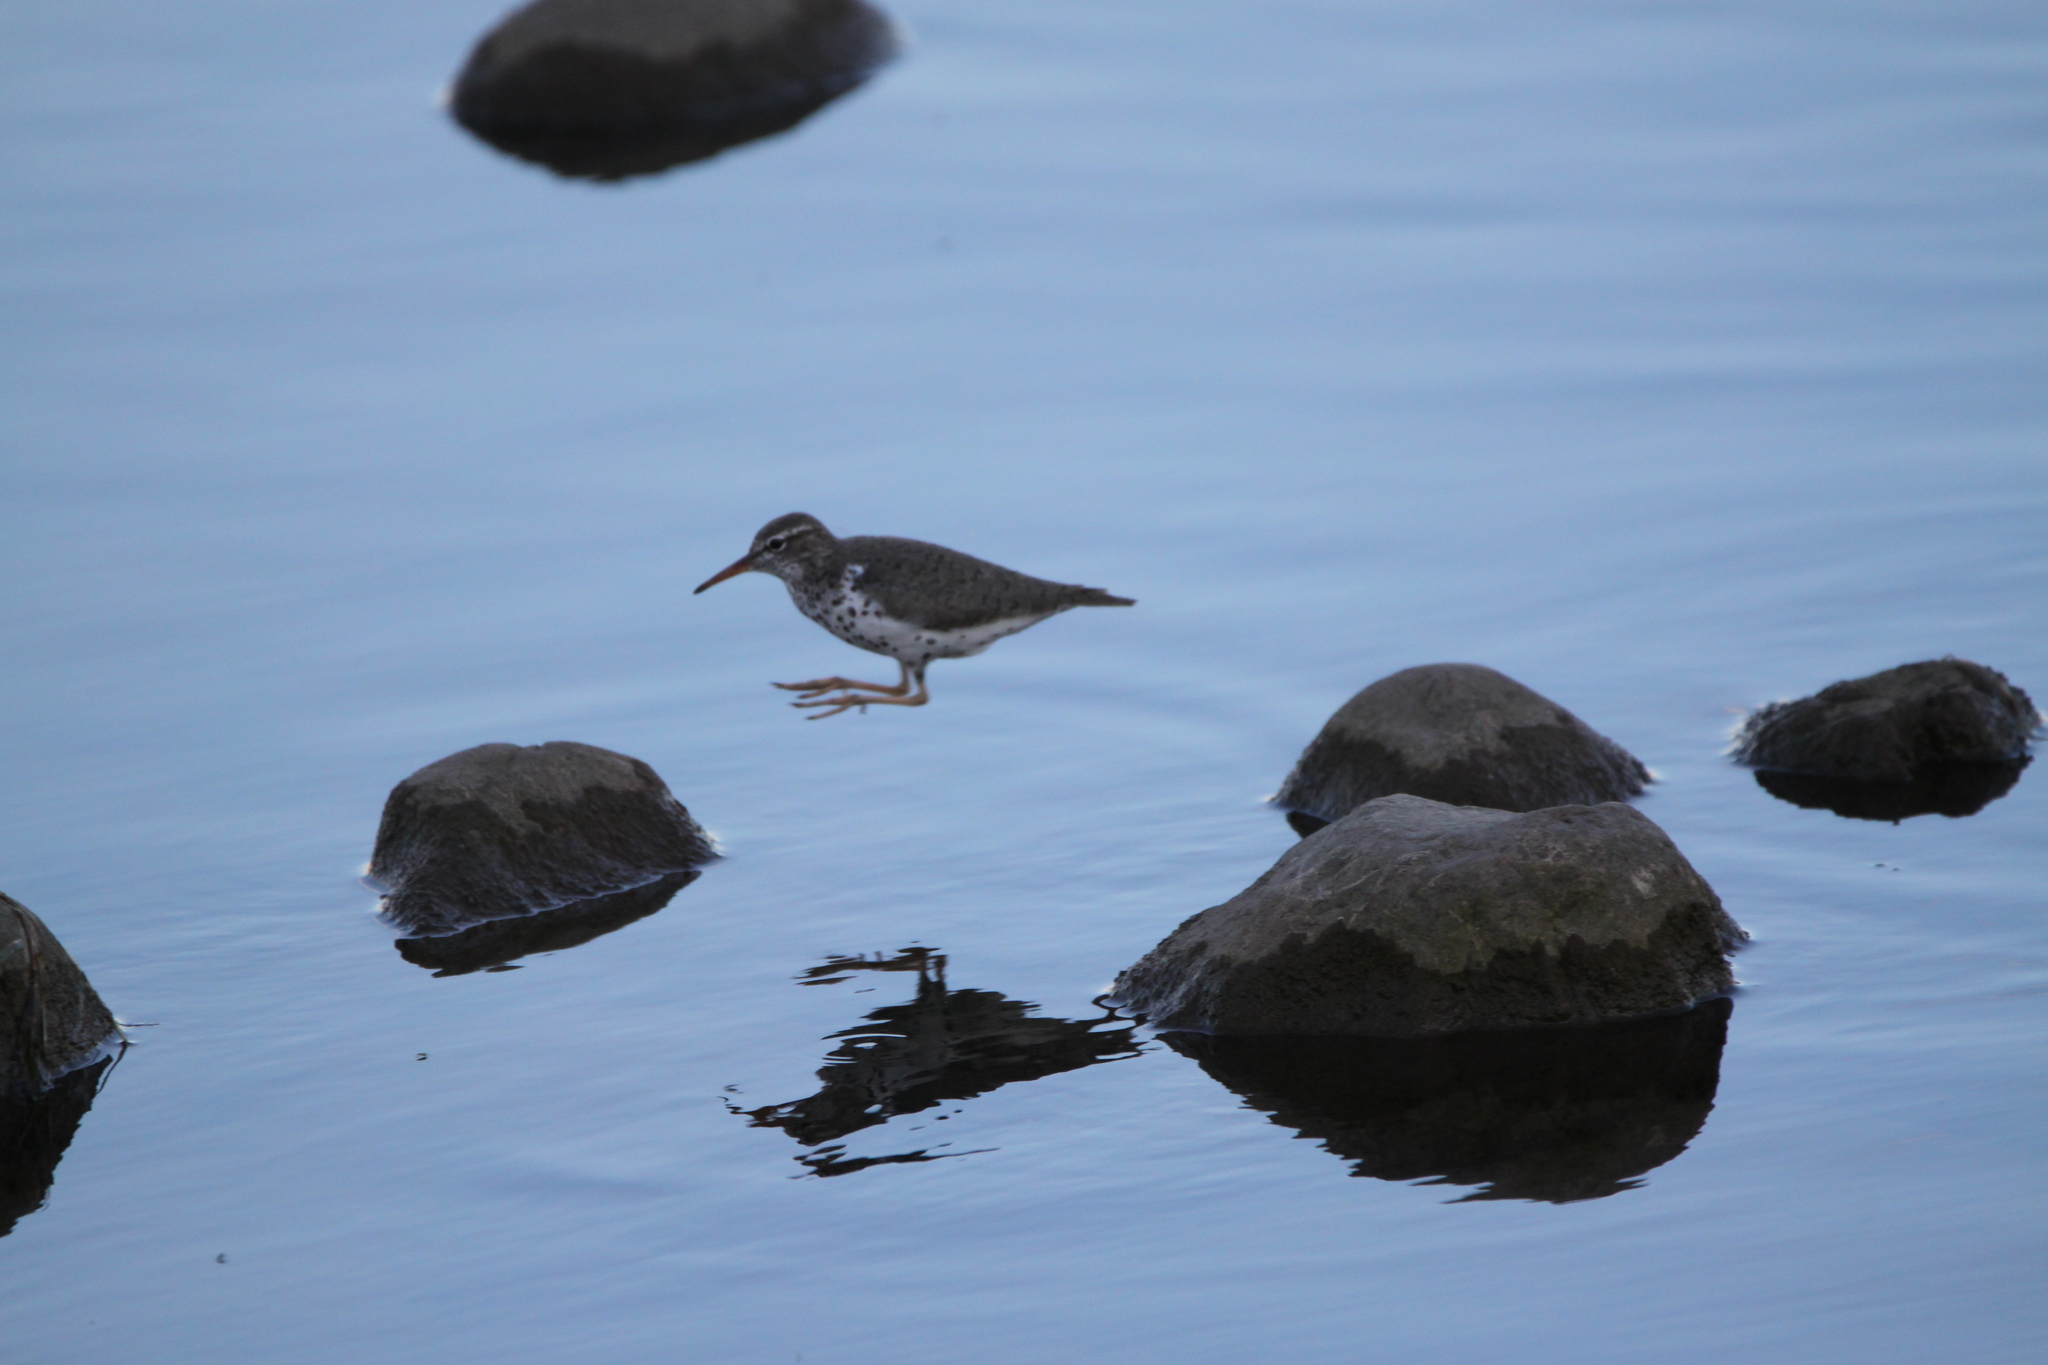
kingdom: Animalia
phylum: Chordata
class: Aves
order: Charadriiformes
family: Scolopacidae
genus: Actitis
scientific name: Actitis macularius
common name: Spotted sandpiper
